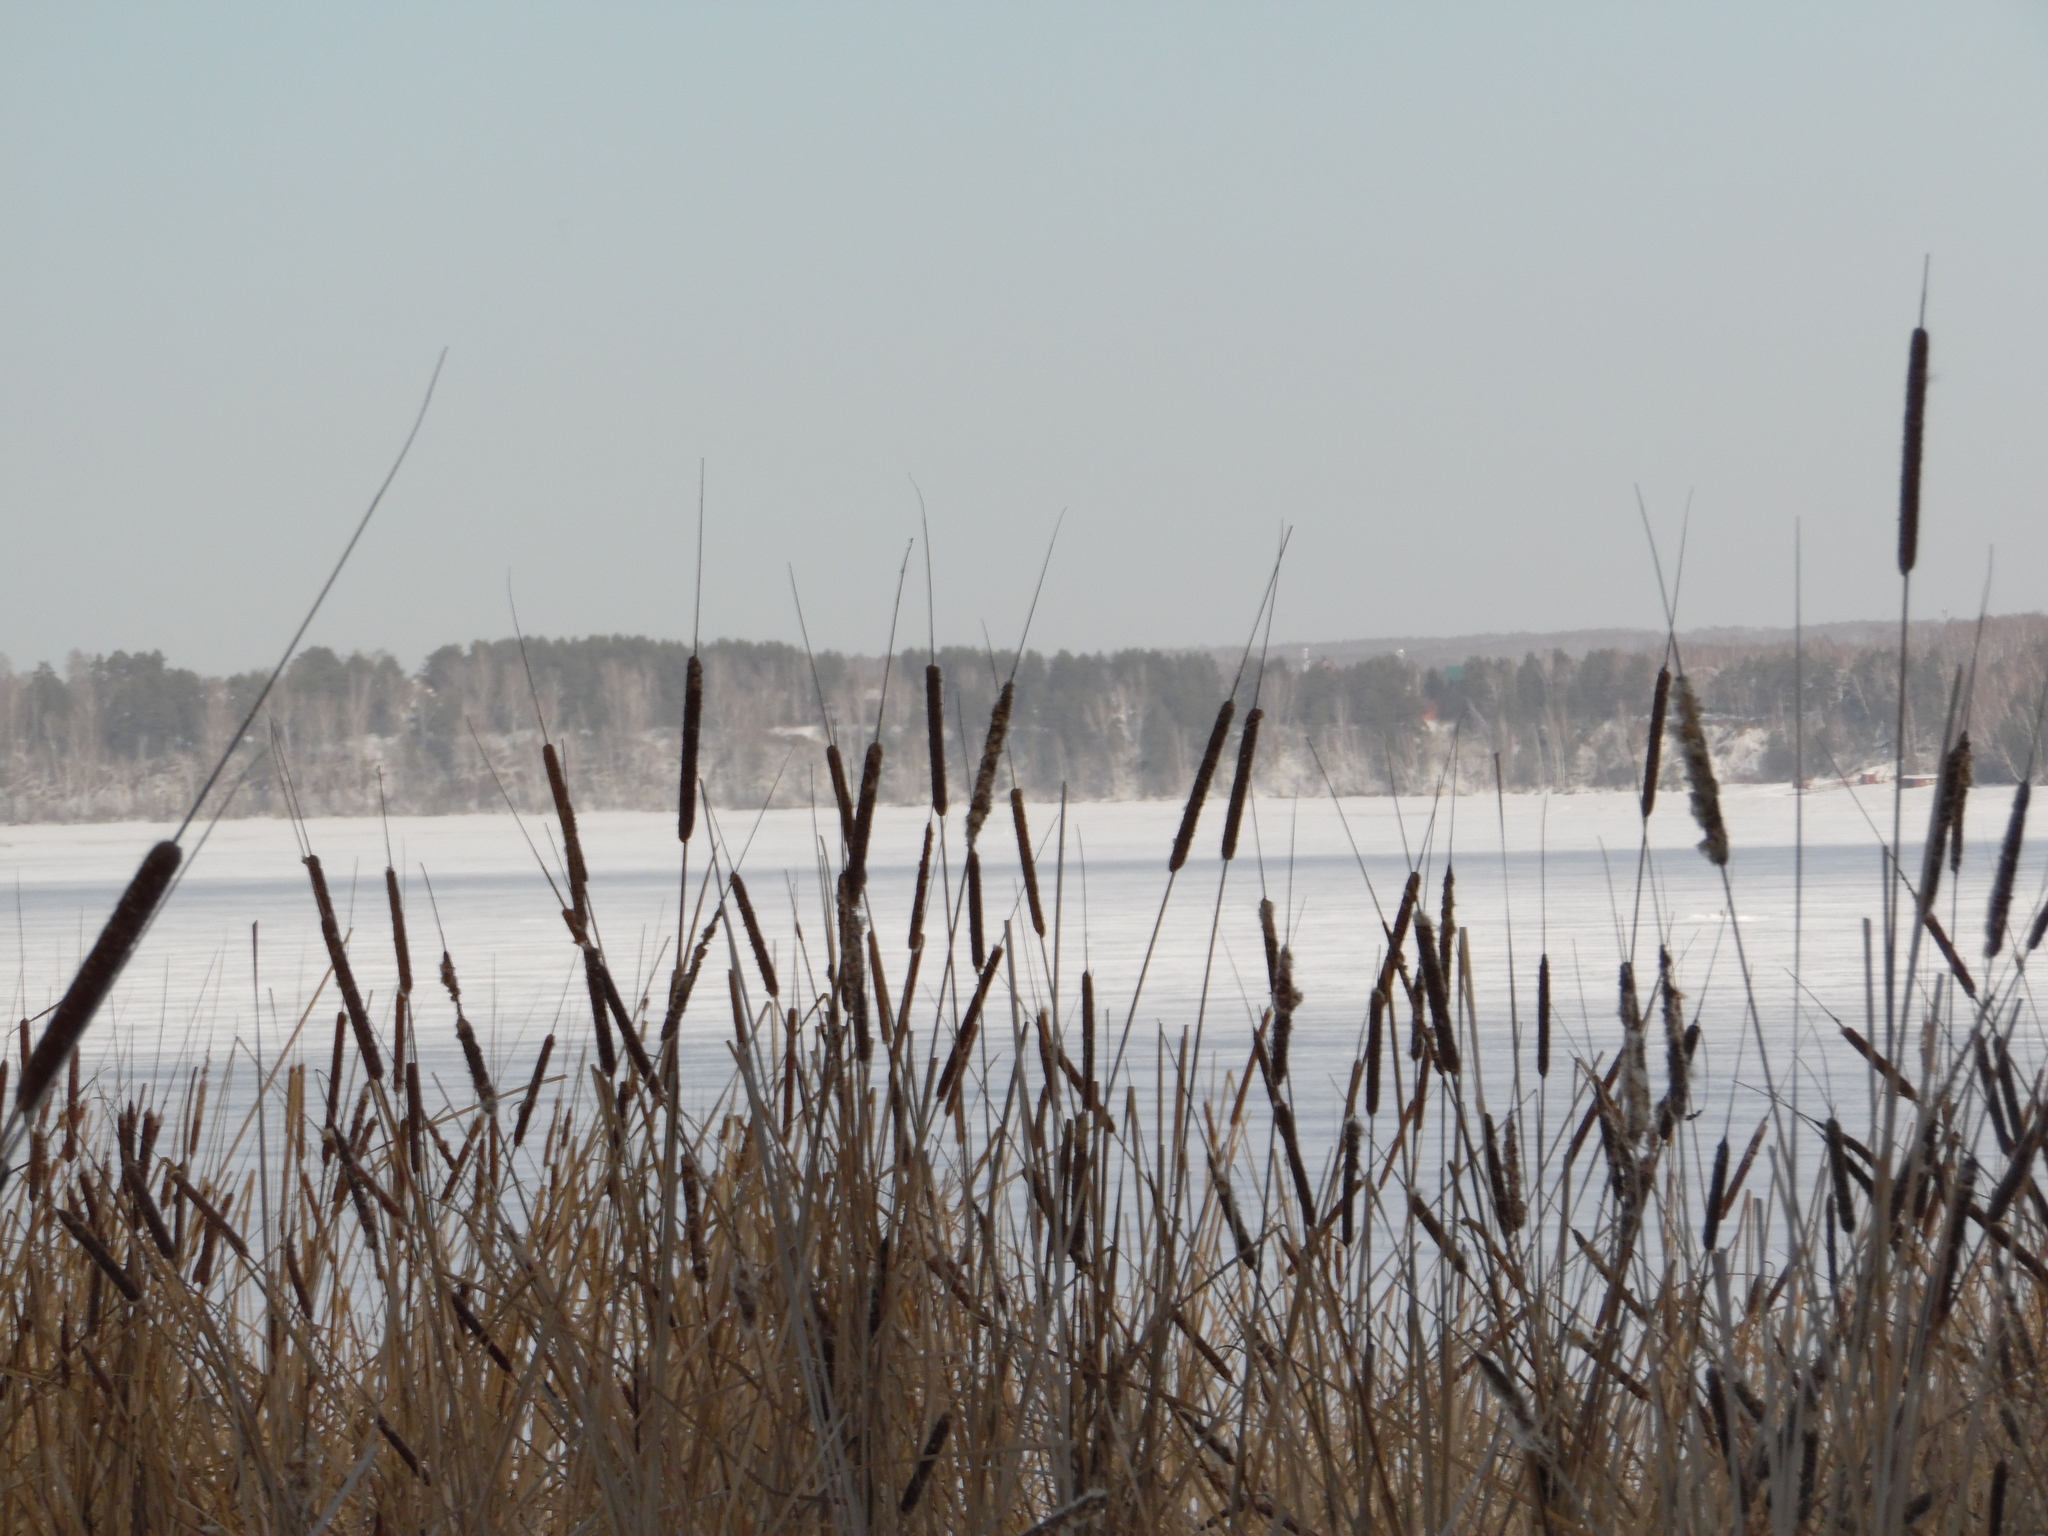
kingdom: Plantae
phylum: Tracheophyta
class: Liliopsida
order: Poales
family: Typhaceae
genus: Typha
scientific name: Typha angustifolia
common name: Lesser bulrush
